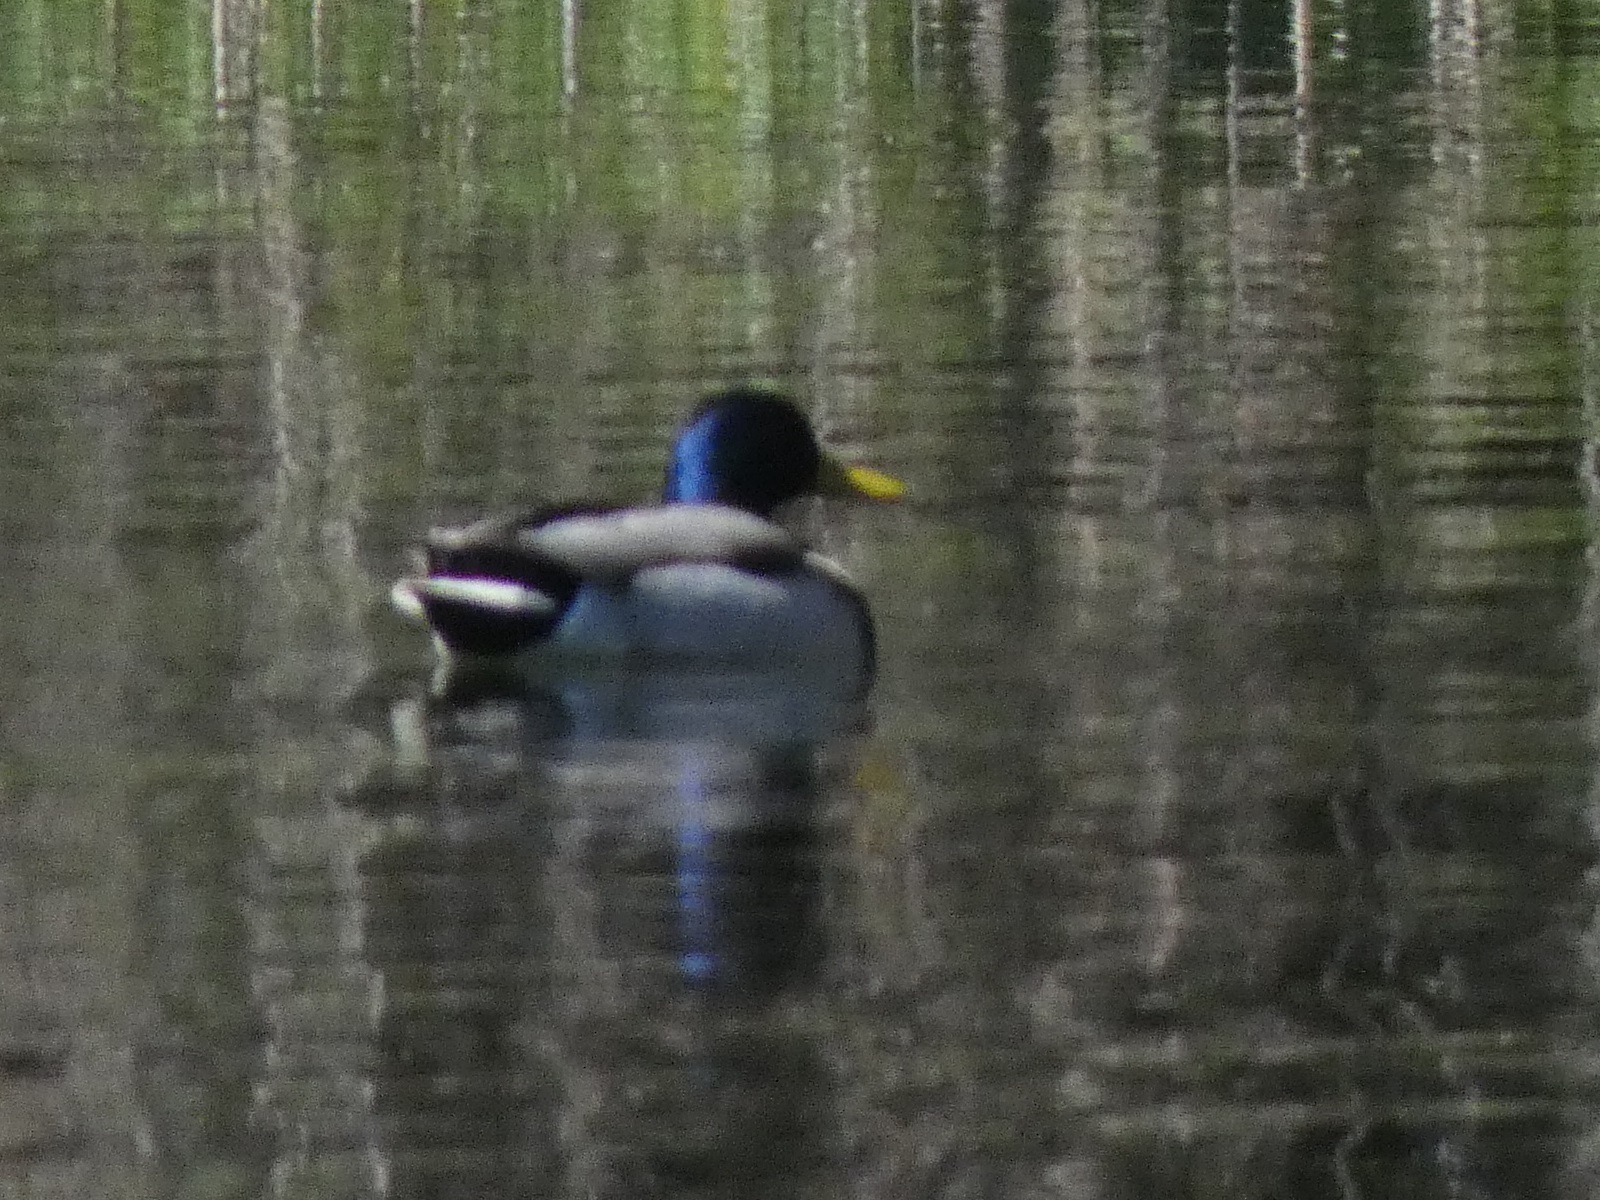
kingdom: Animalia
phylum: Chordata
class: Aves
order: Anseriformes
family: Anatidae
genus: Anas
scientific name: Anas platyrhynchos
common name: Mallard
